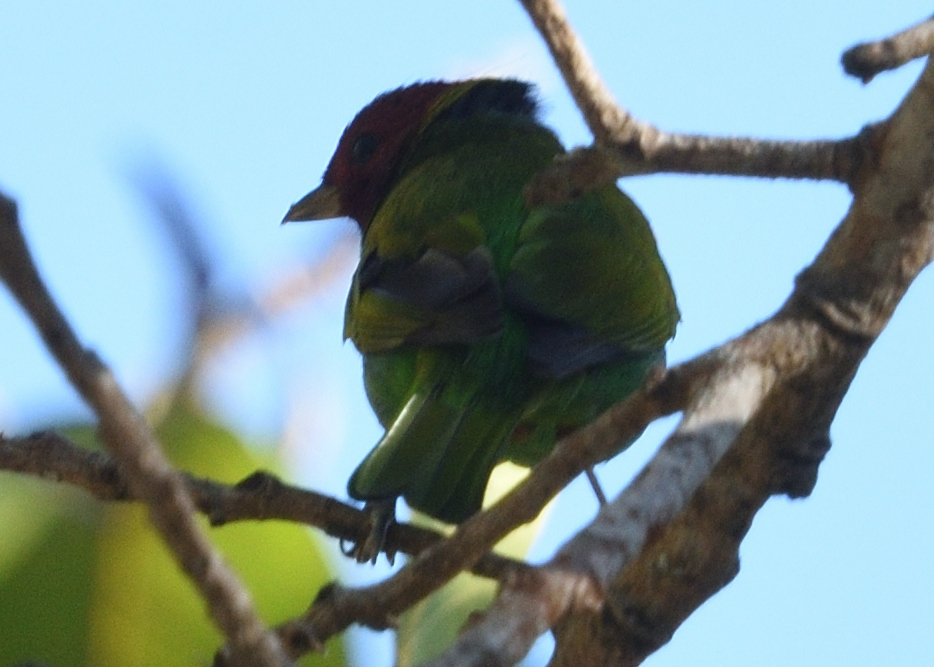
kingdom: Animalia
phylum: Chordata
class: Aves
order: Passeriformes
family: Thraupidae
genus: Tangara
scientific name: Tangara gyrola
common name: Bay-headed tanager
